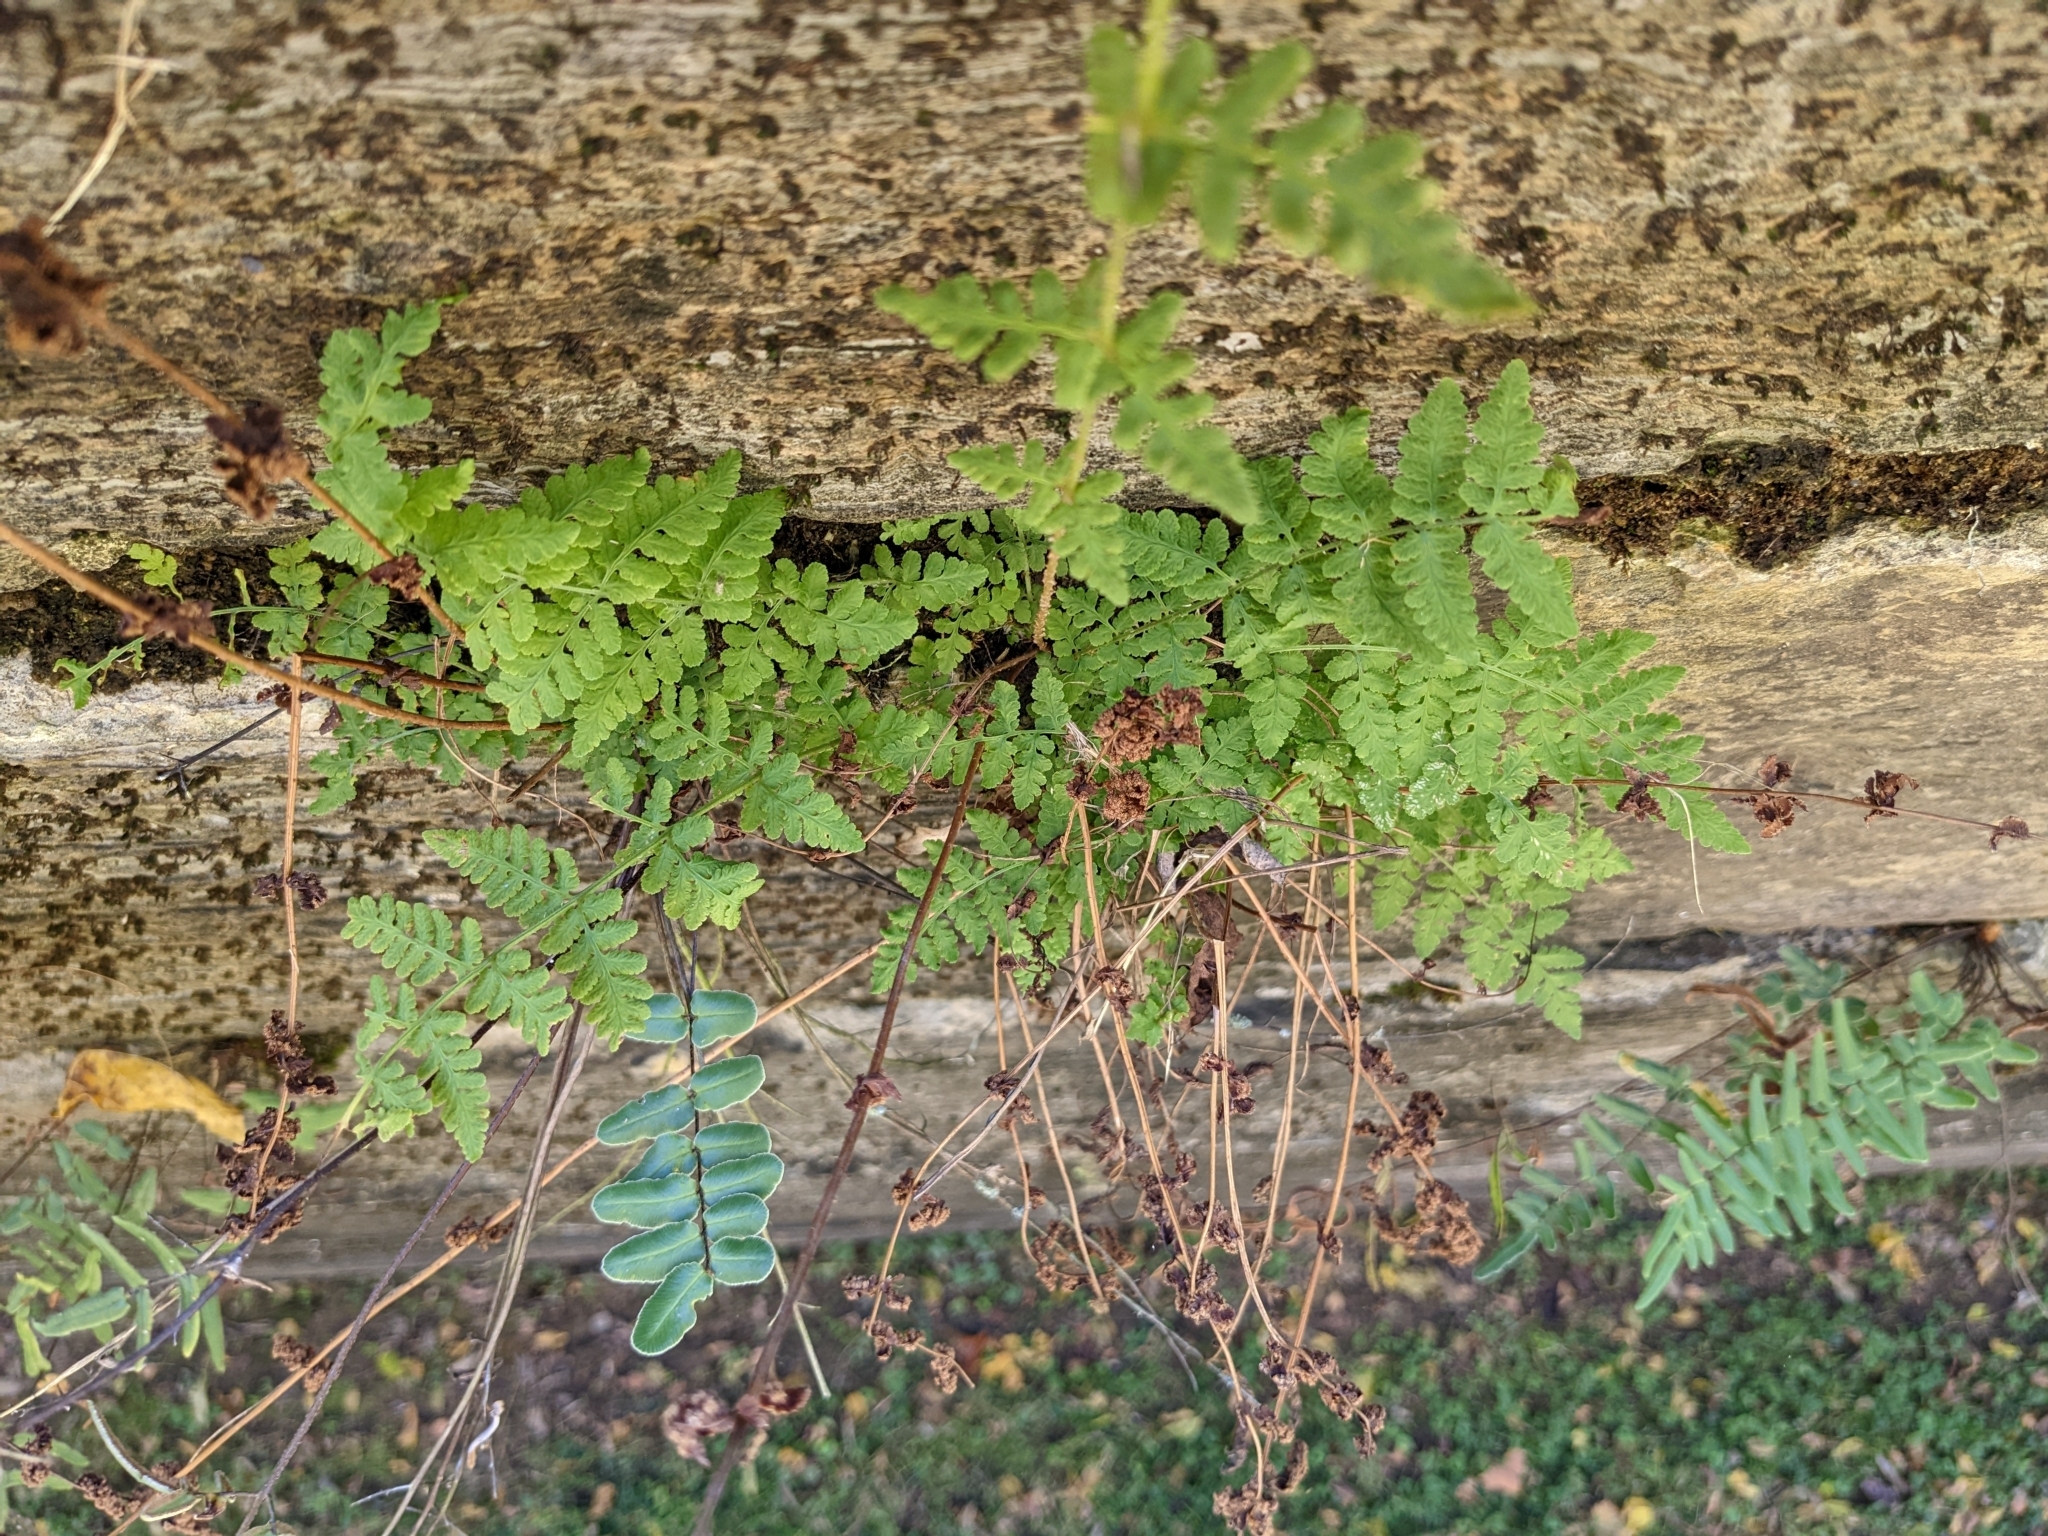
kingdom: Plantae
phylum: Tracheophyta
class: Polypodiopsida
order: Polypodiales
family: Woodsiaceae
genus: Physematium
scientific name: Physematium obtusum
